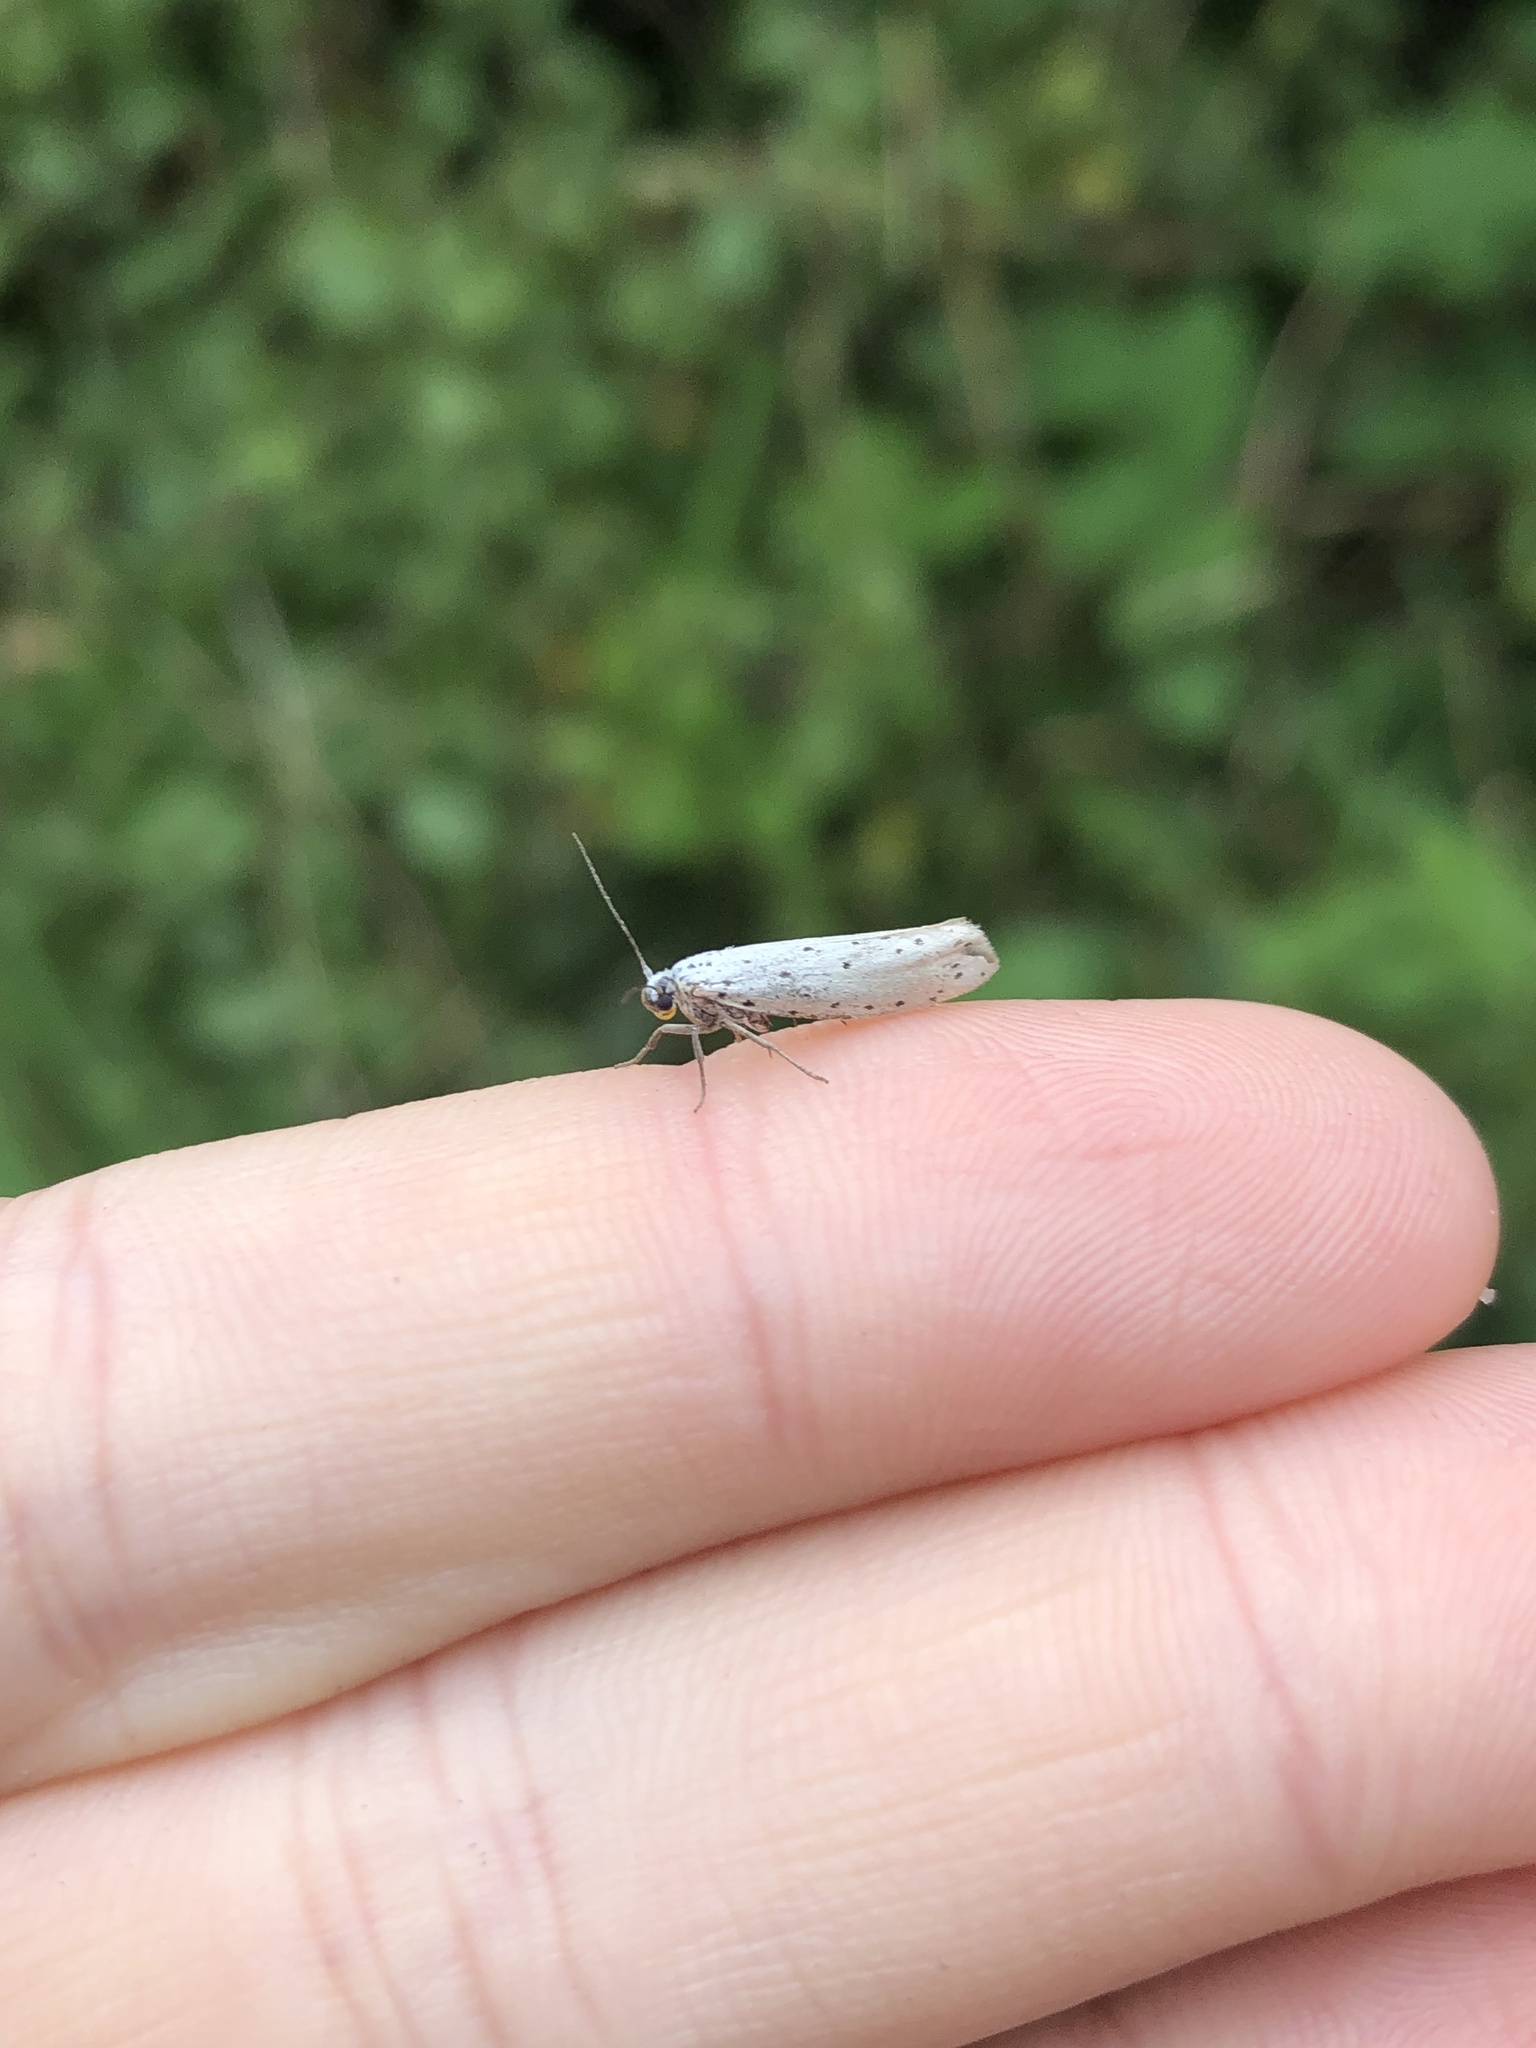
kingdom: Animalia
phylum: Arthropoda
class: Insecta
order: Lepidoptera
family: Yponomeutidae
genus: Yponomeuta
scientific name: Yponomeuta
